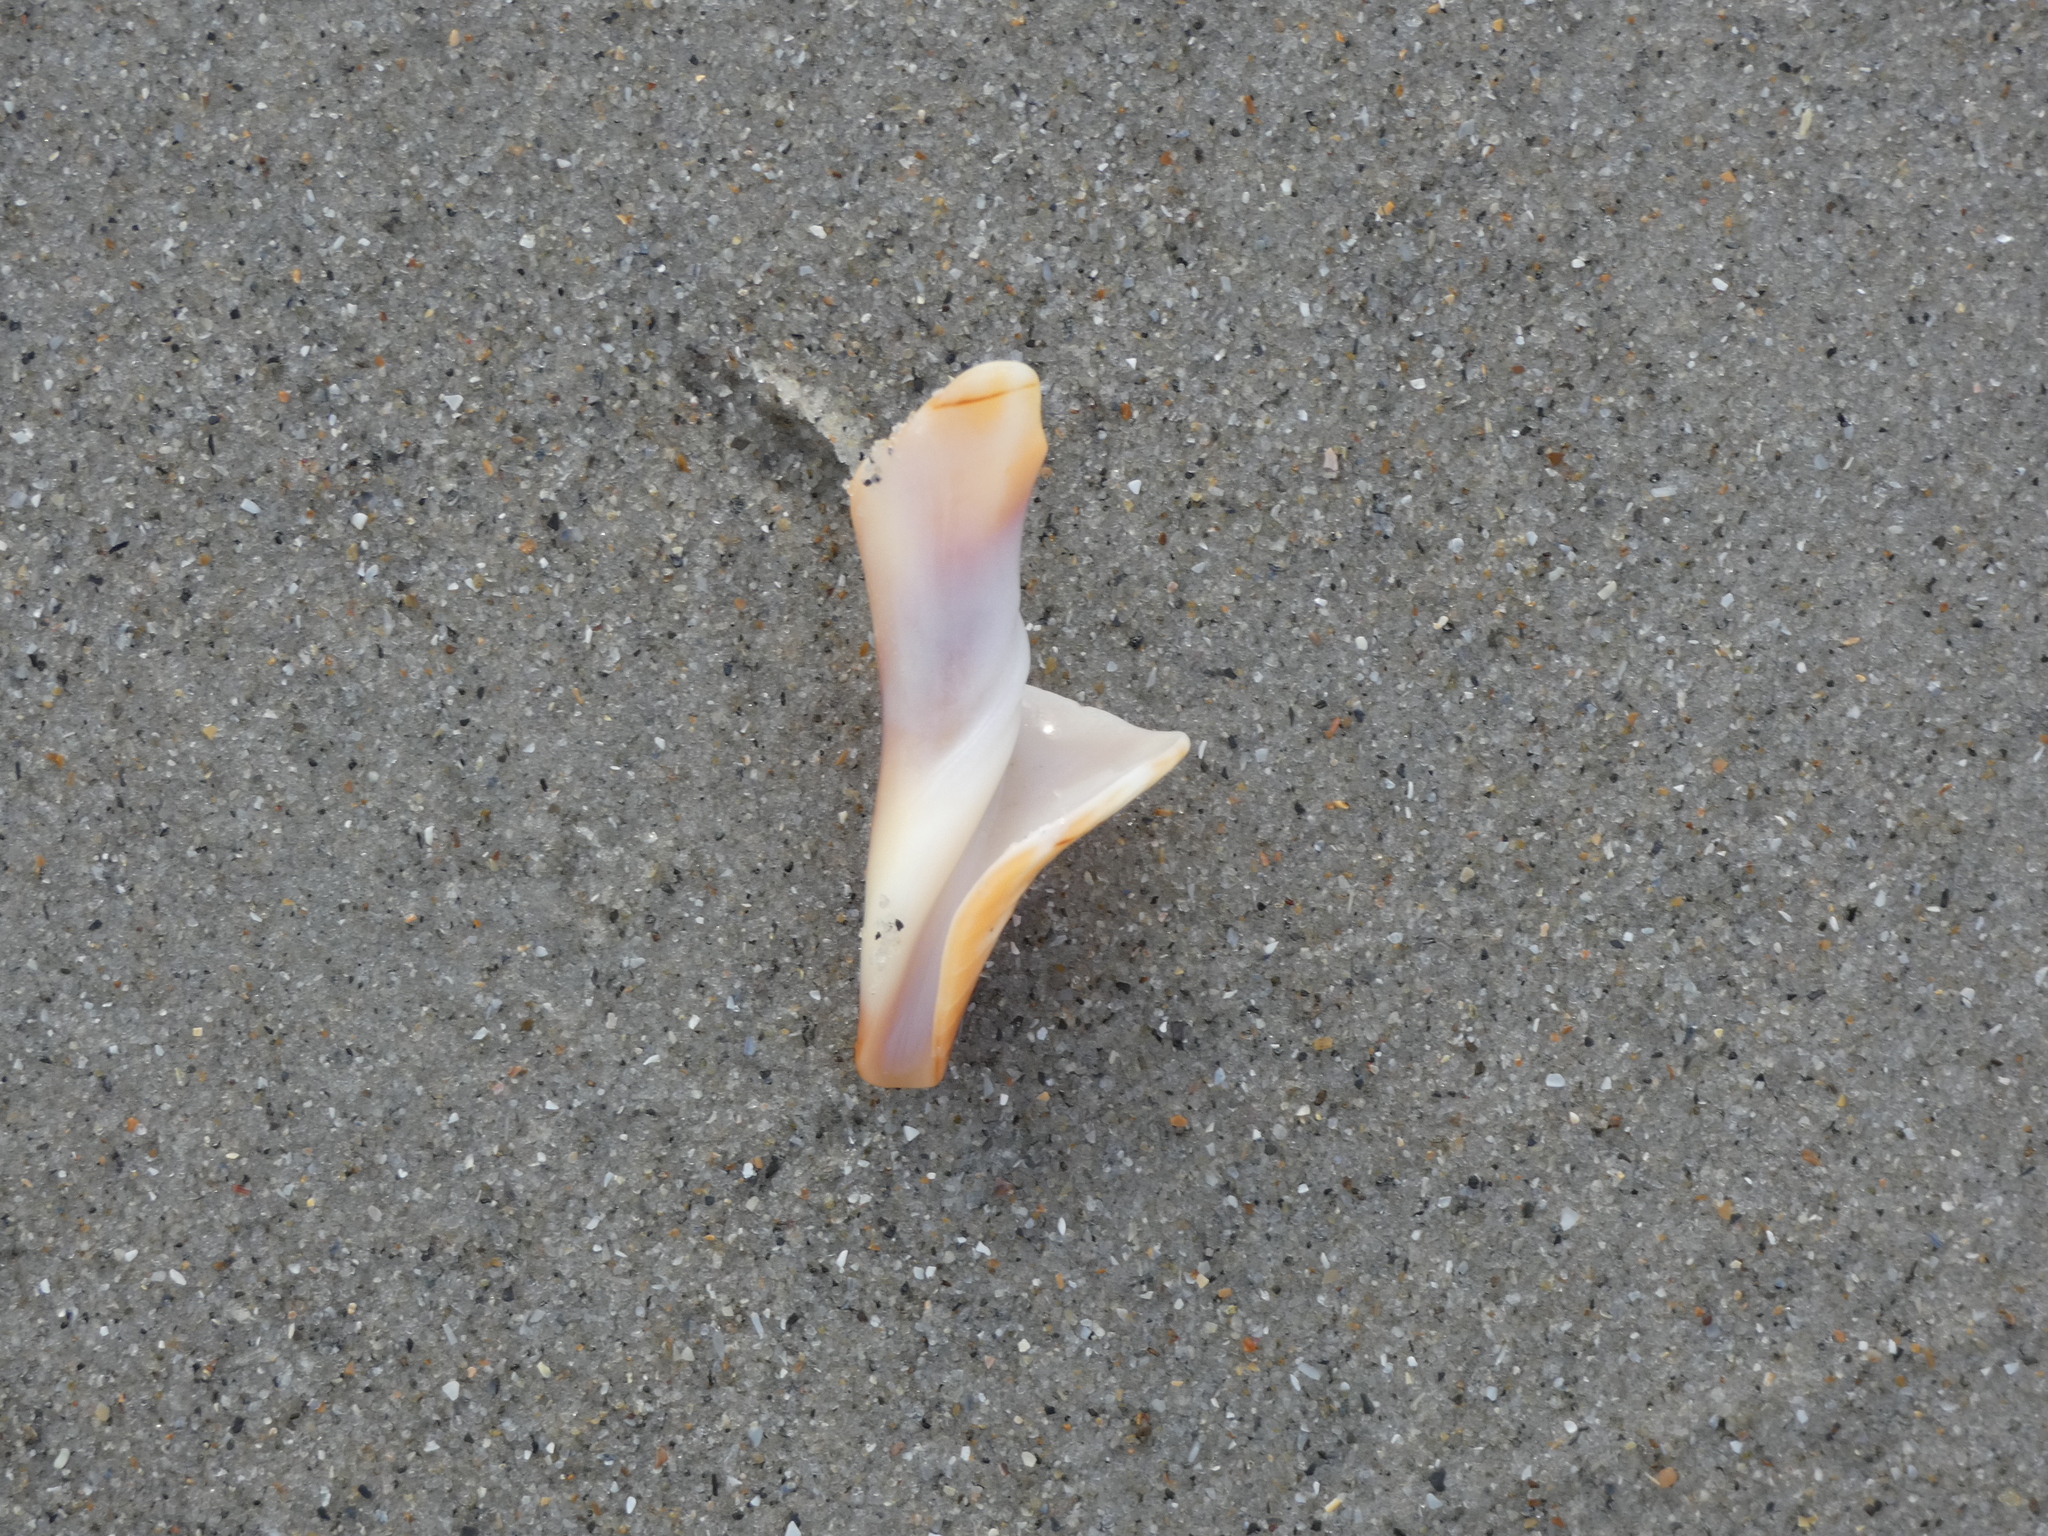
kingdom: Animalia
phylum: Mollusca
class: Gastropoda
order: Neogastropoda
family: Fasciolariidae
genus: Cinctura
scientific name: Cinctura hunteria
